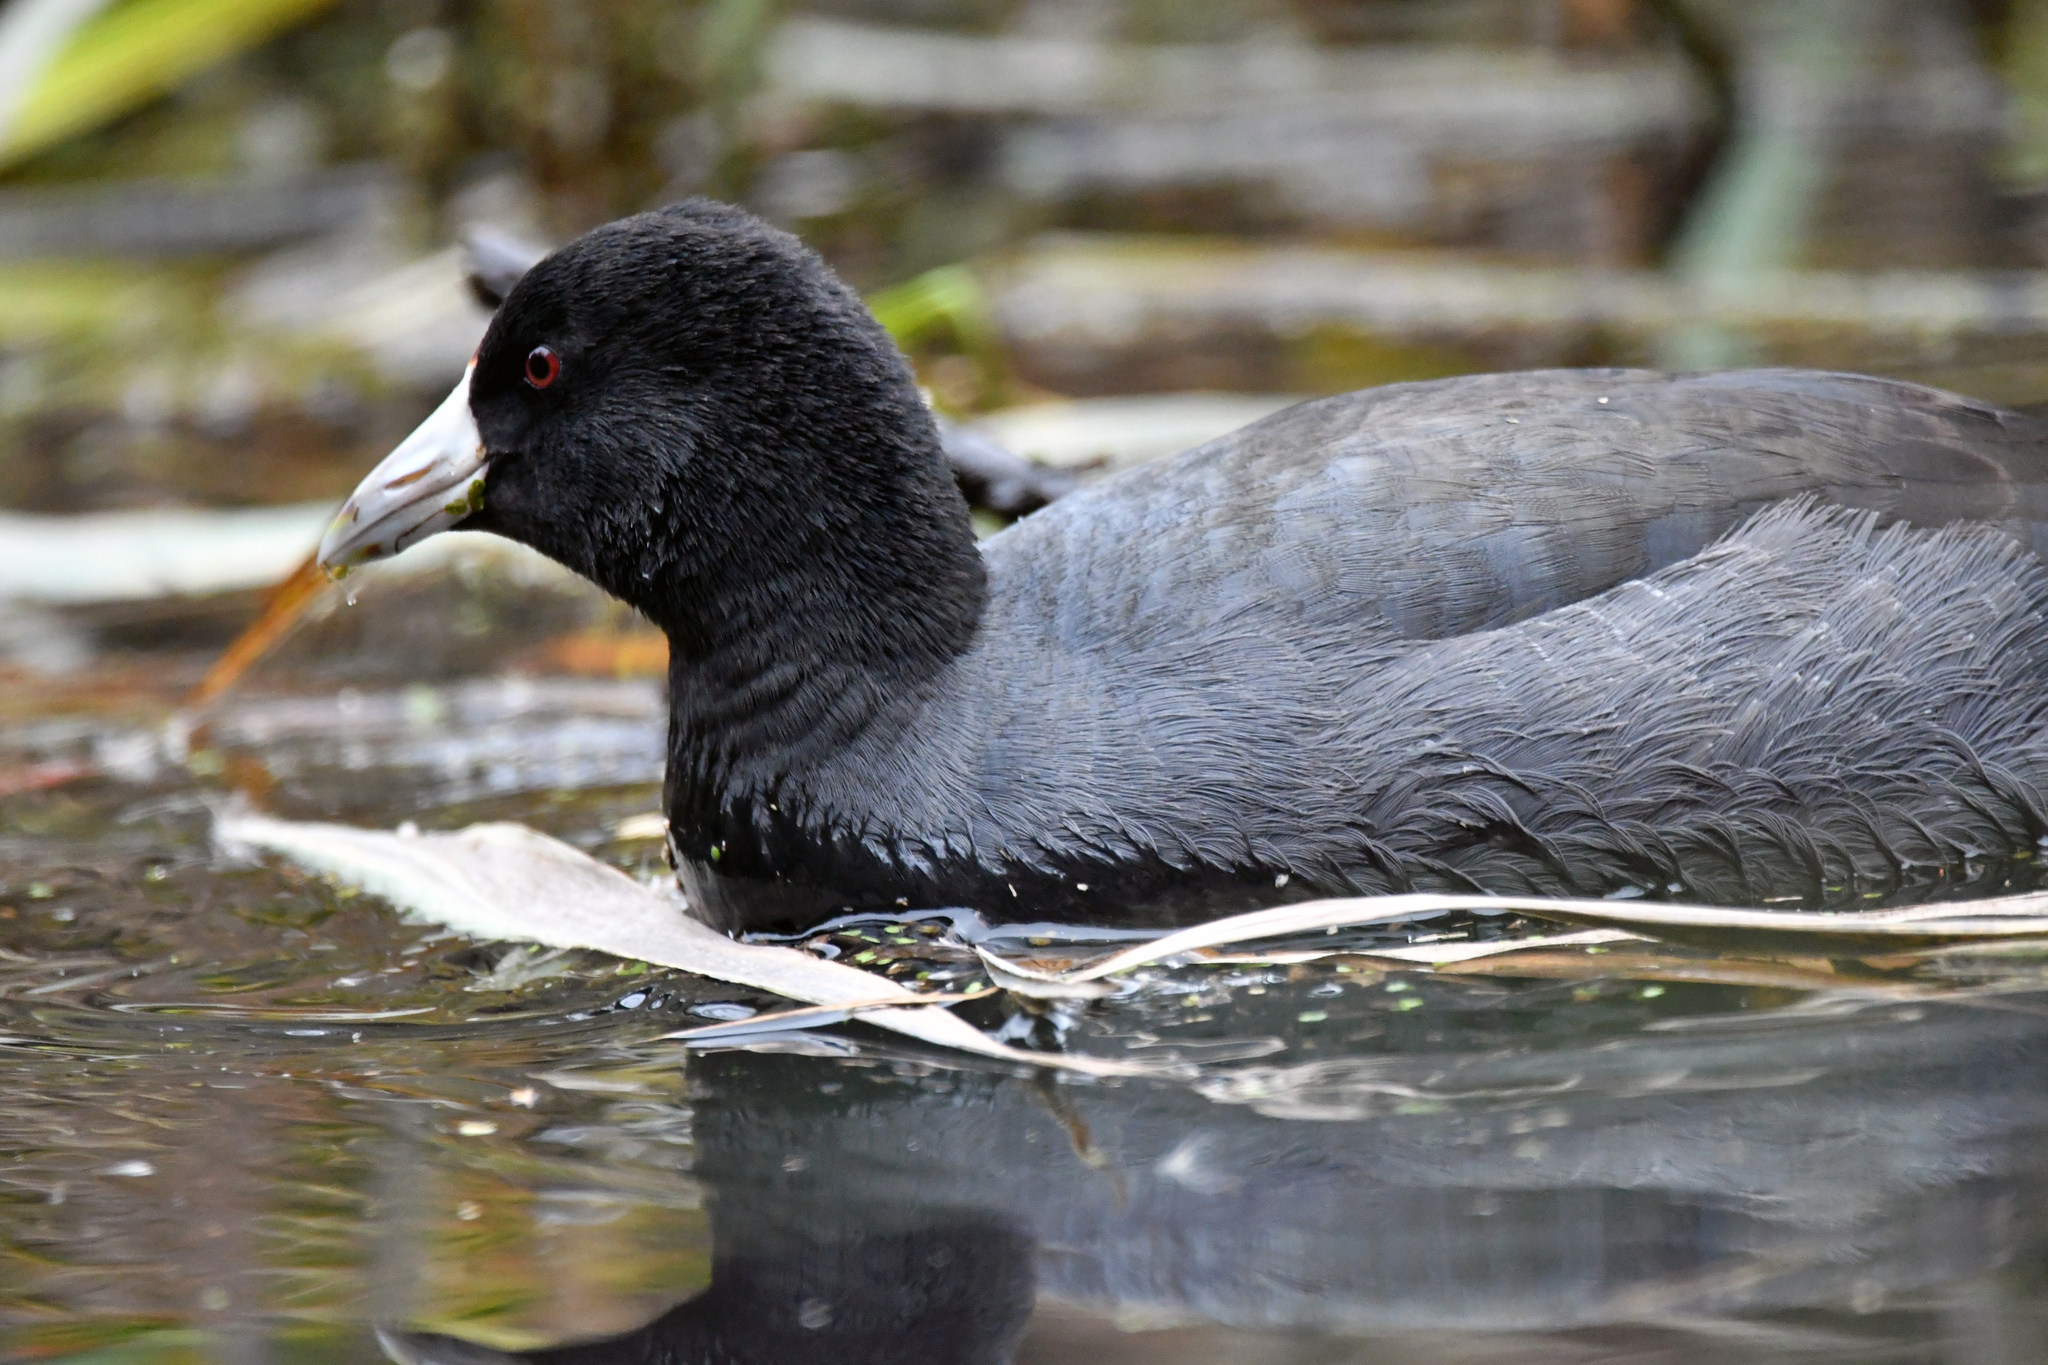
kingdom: Animalia
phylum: Chordata
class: Aves
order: Gruiformes
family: Rallidae
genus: Fulica
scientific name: Fulica americana
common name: American coot
